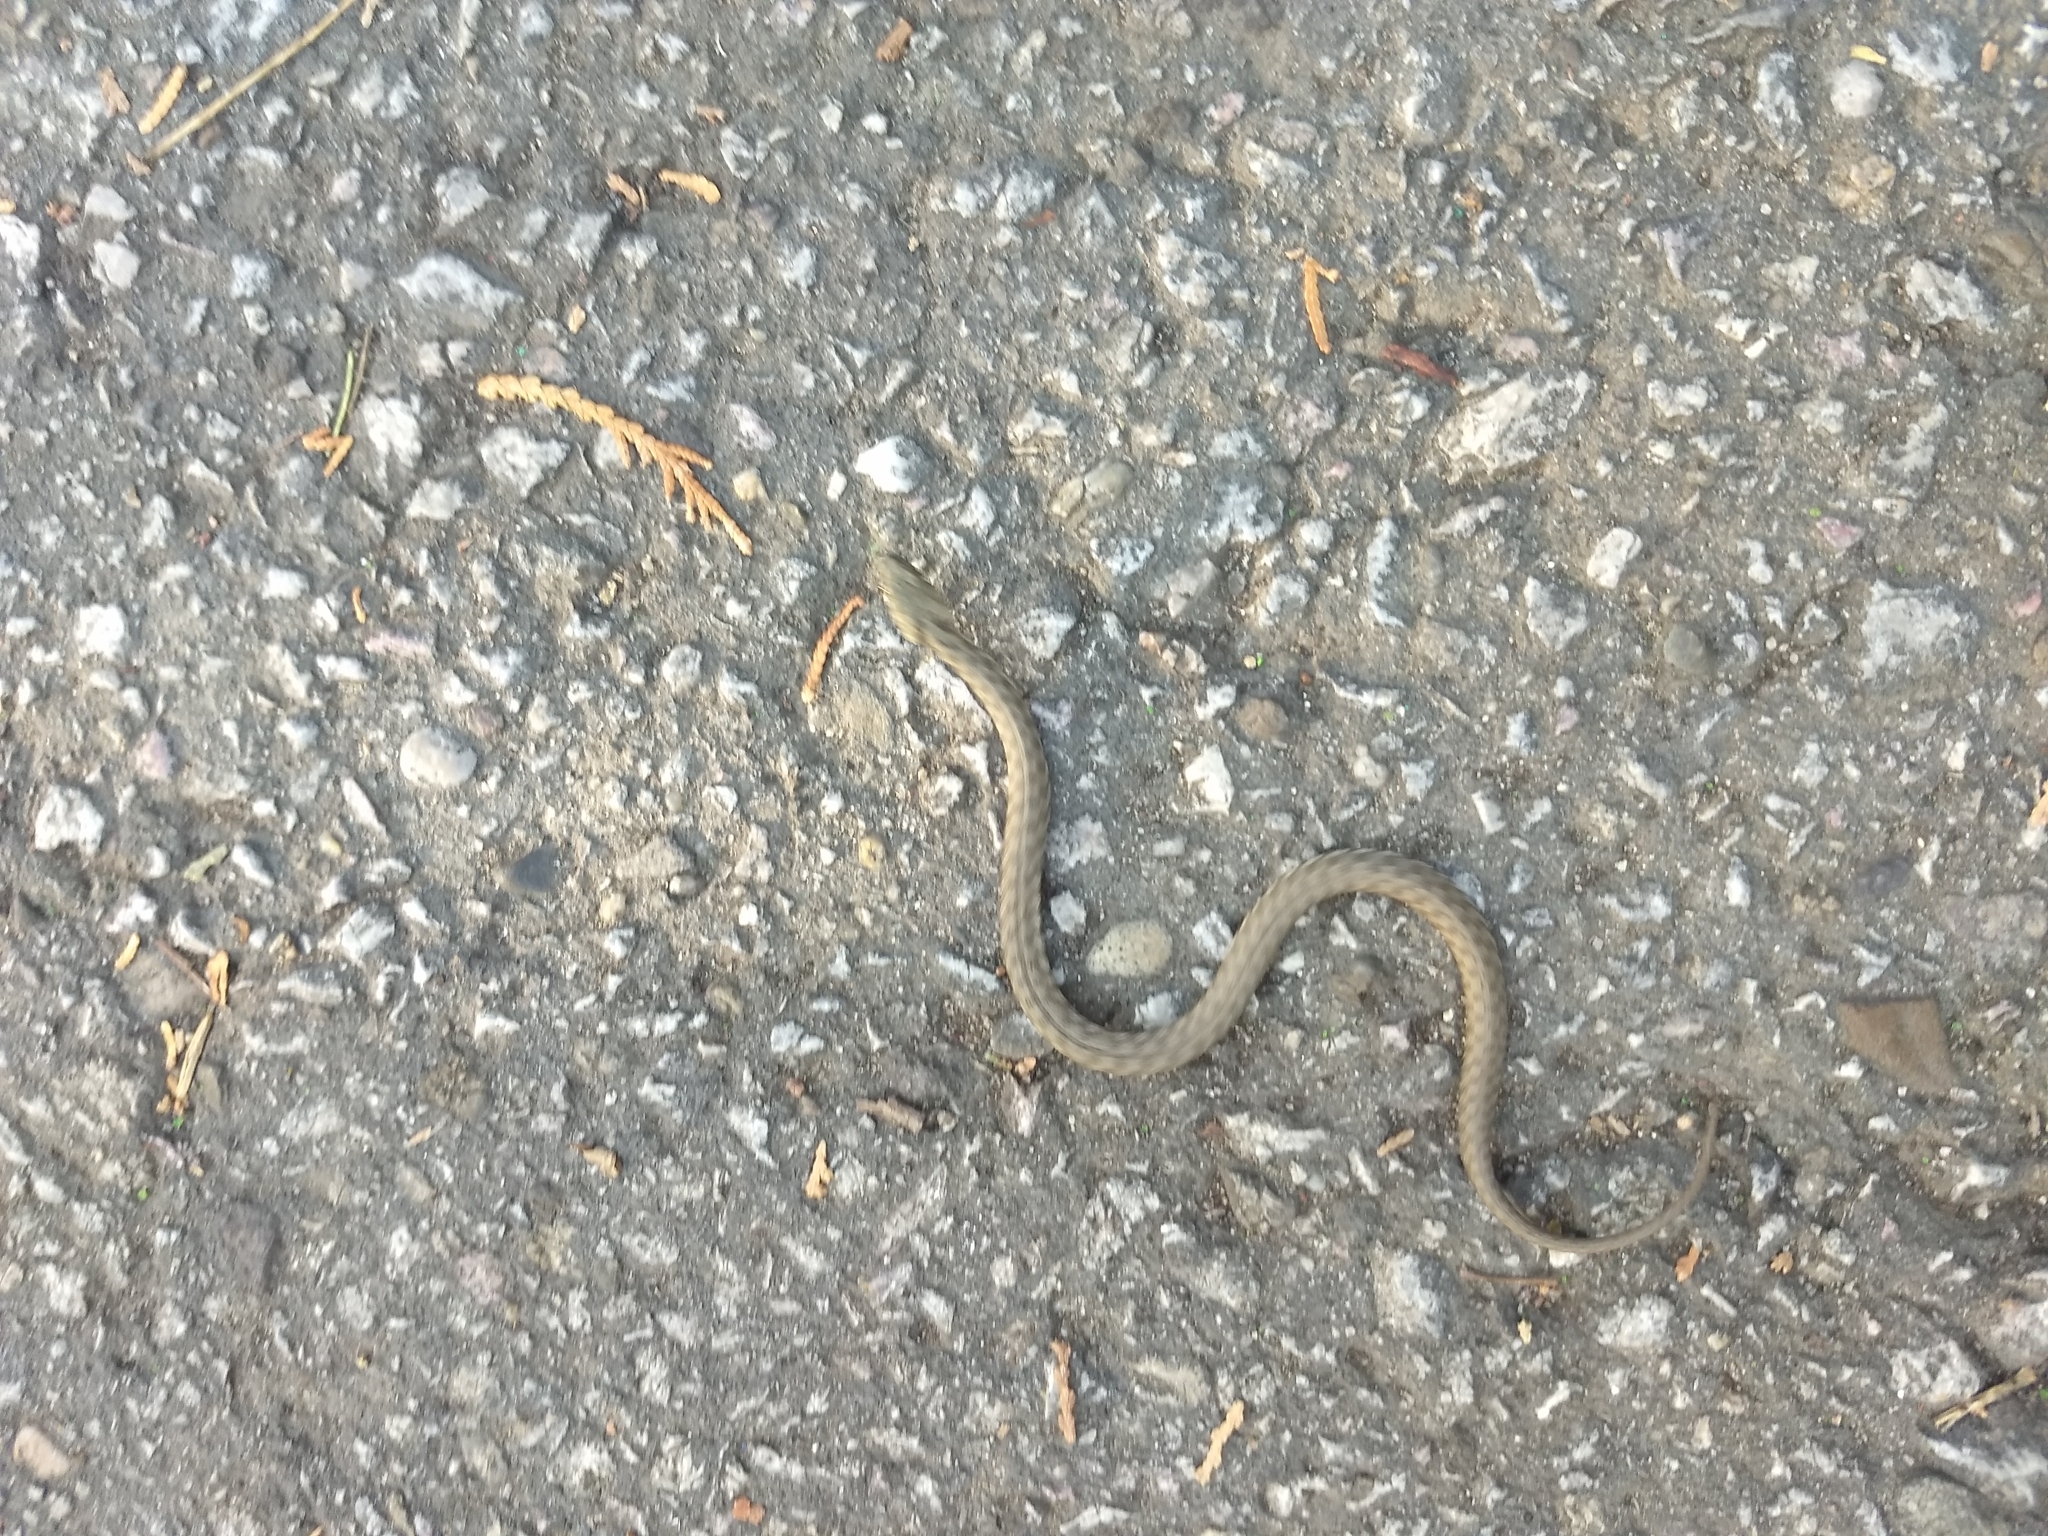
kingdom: Animalia
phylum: Chordata
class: Squamata
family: Colubridae
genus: Natrix
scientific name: Natrix tessellata
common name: Dice snake
